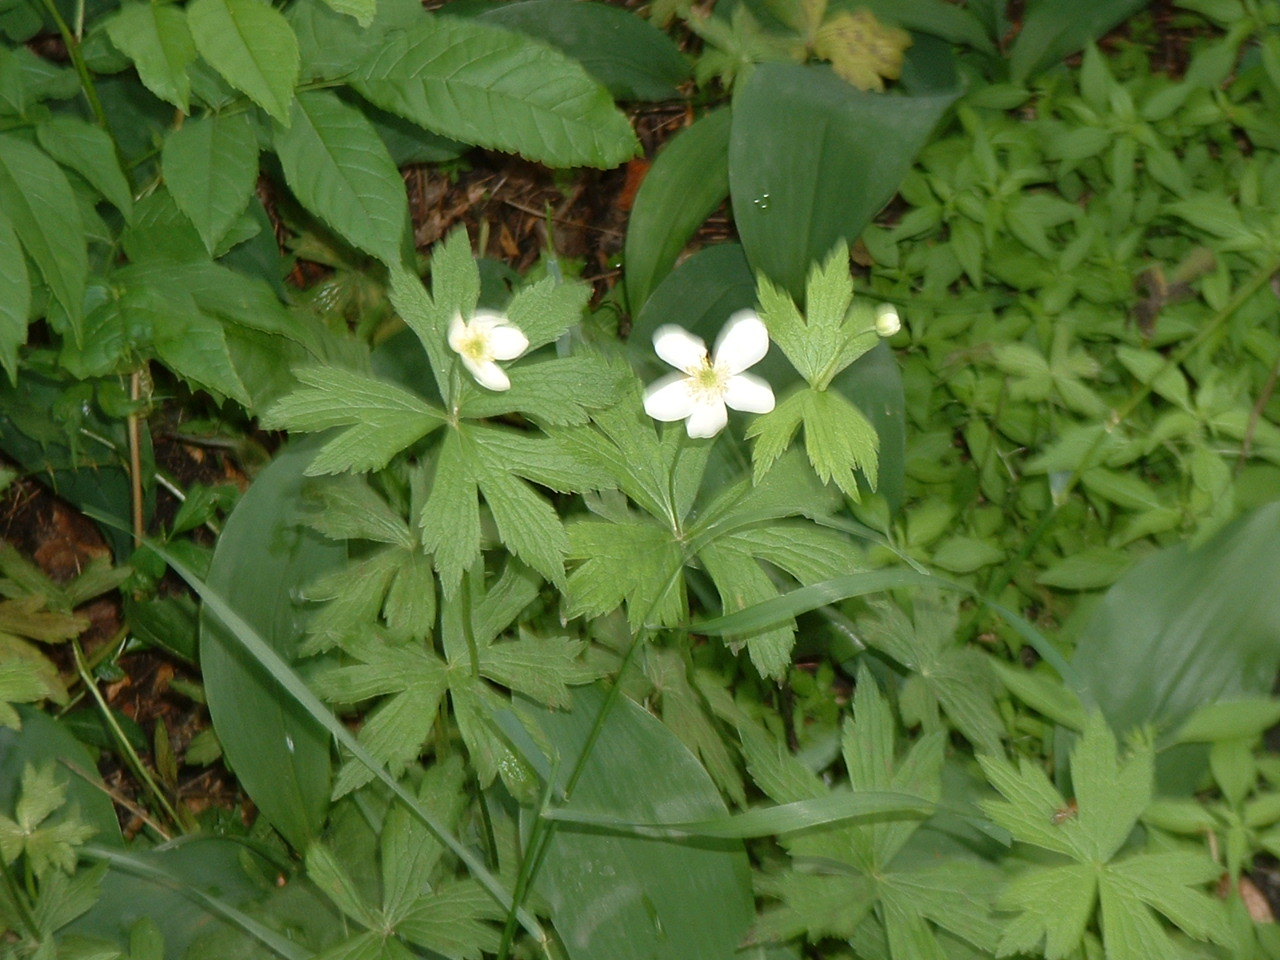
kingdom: Plantae
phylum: Tracheophyta
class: Magnoliopsida
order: Ranunculales
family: Ranunculaceae
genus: Anemonastrum
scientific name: Anemonastrum canadense
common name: Canada anemone
